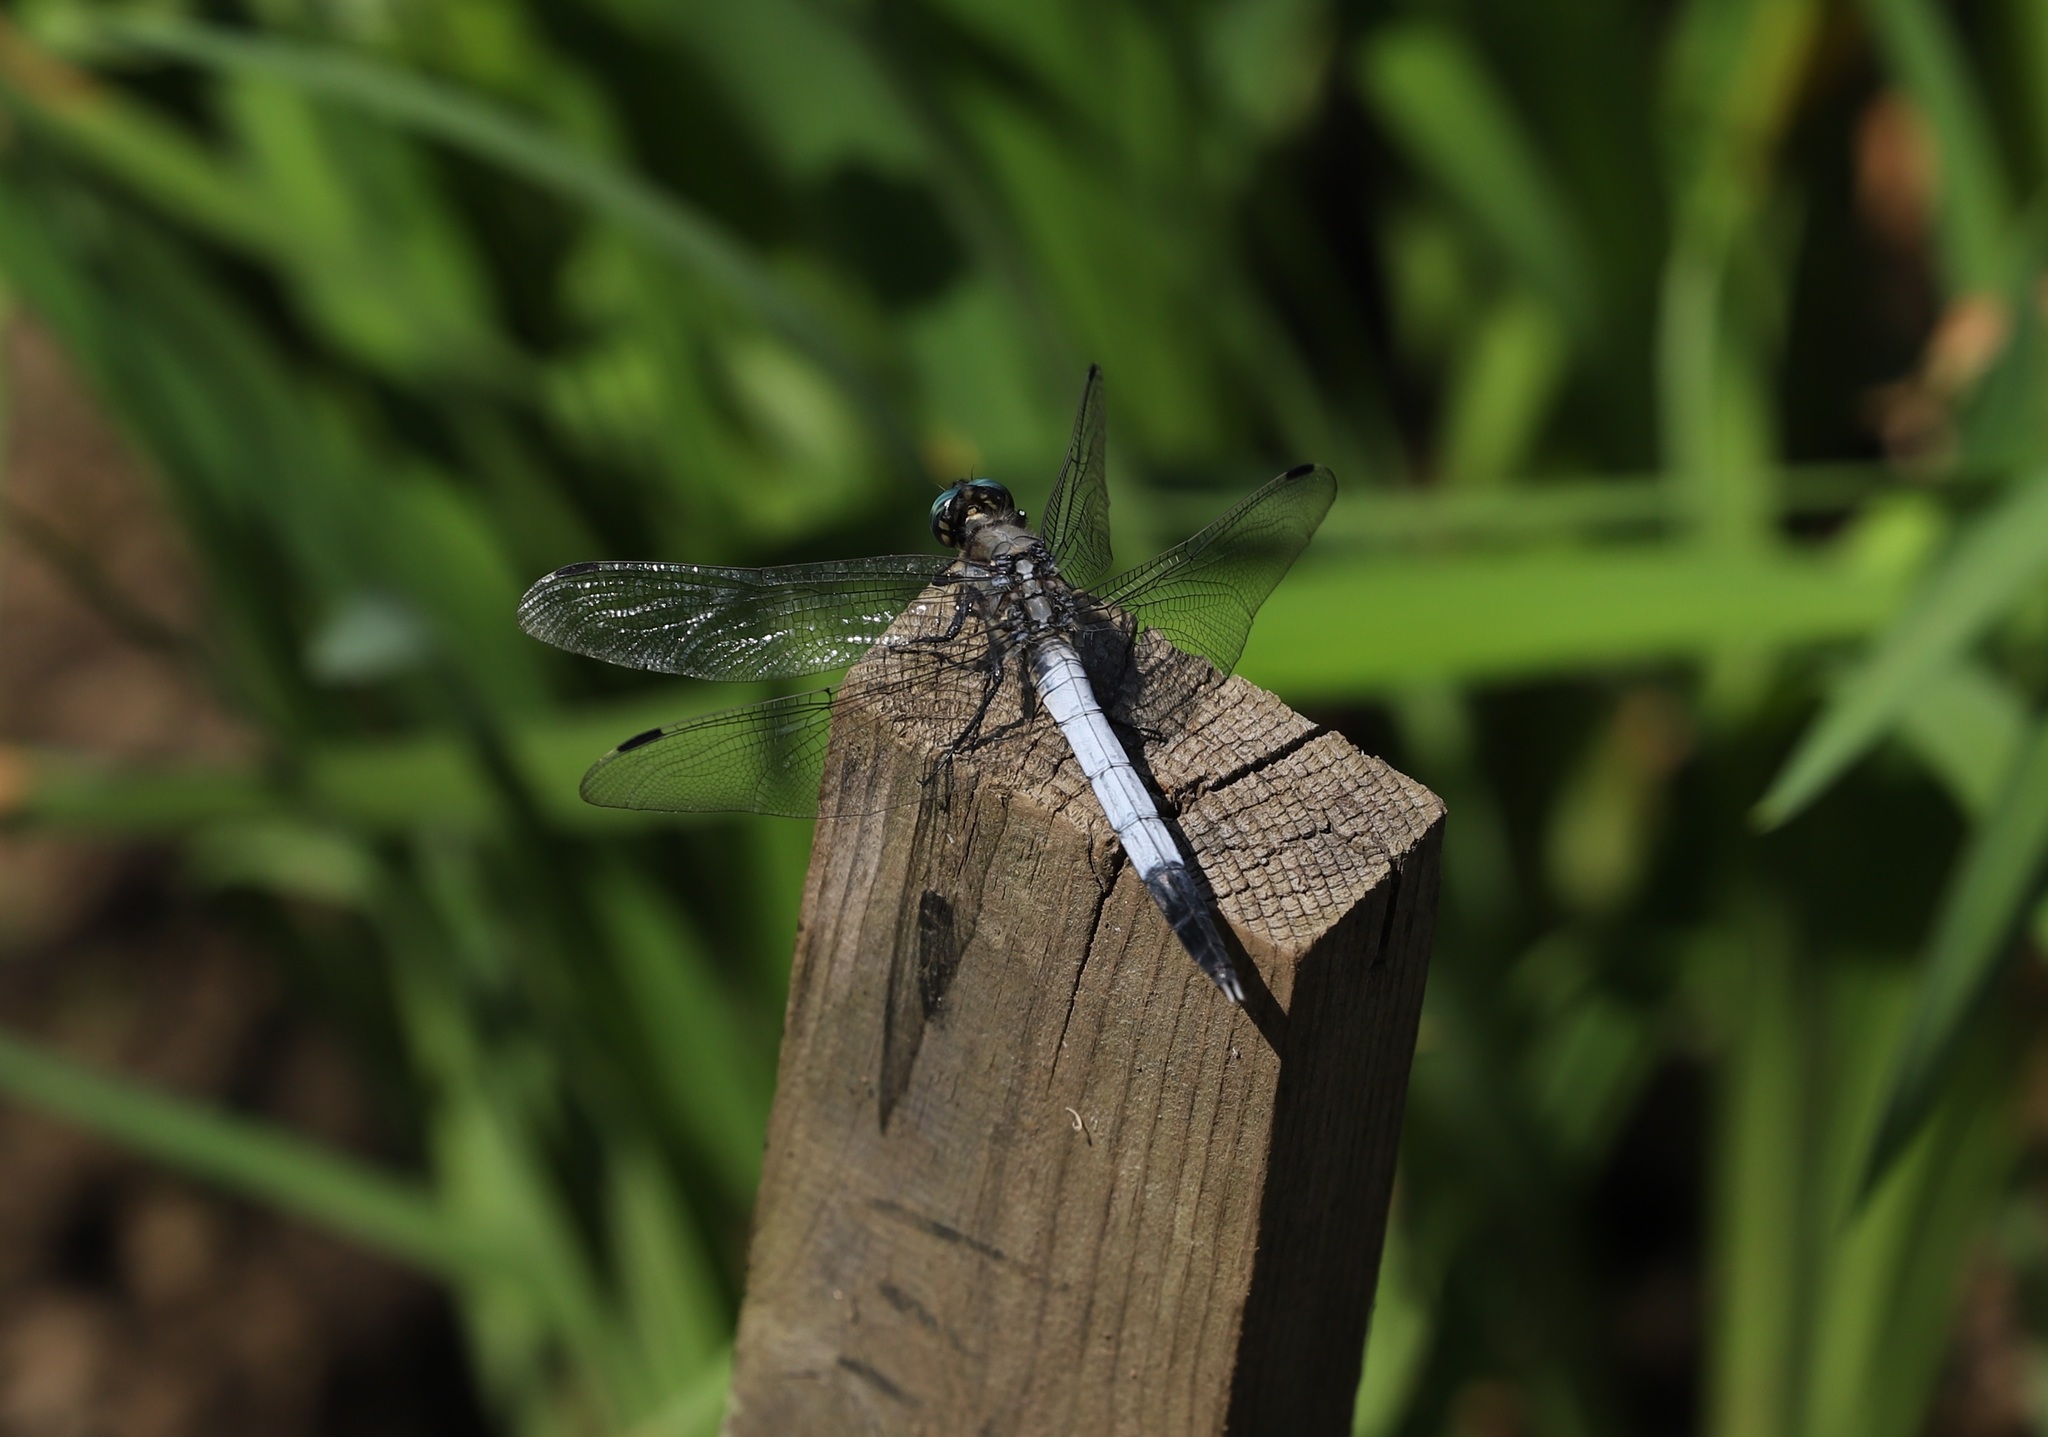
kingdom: Animalia
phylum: Arthropoda
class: Insecta
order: Odonata
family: Libellulidae
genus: Orthetrum
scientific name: Orthetrum albistylum
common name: White-tailed skimmer
